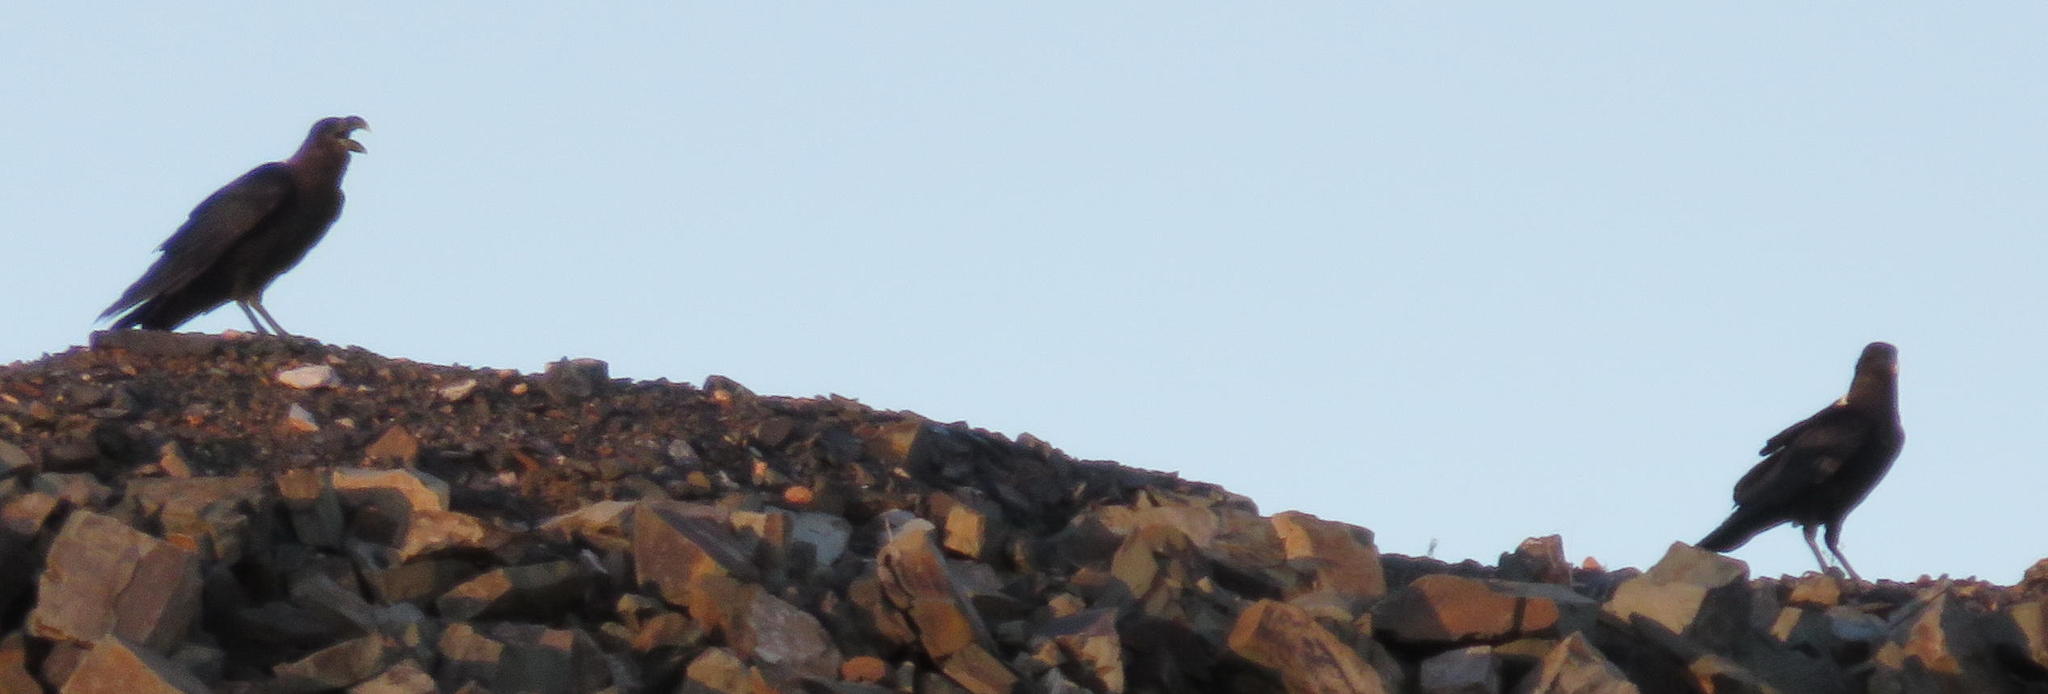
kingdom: Animalia
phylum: Chordata
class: Aves
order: Passeriformes
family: Corvidae
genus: Corvus
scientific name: Corvus albicollis
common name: White-necked raven
